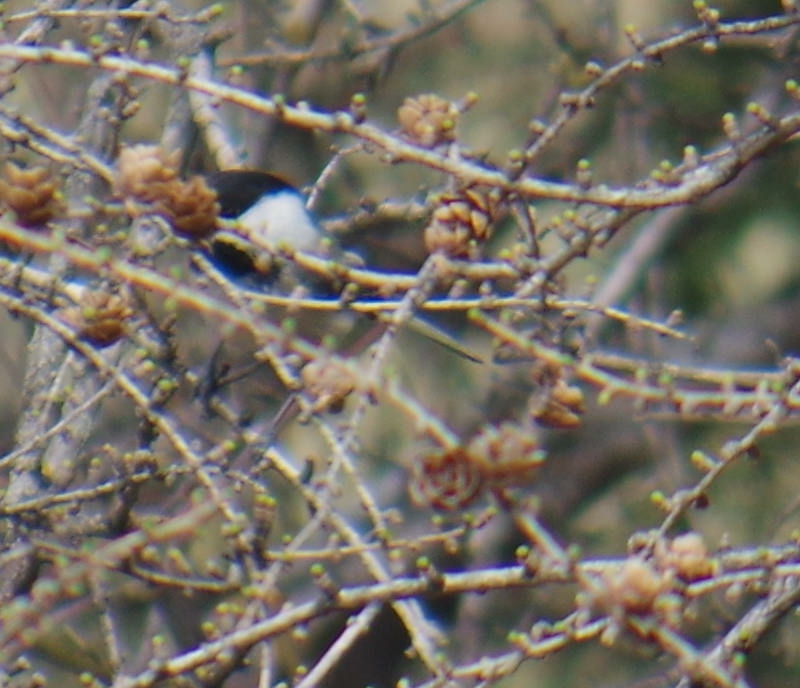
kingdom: Animalia
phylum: Chordata
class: Aves
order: Passeriformes
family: Paridae
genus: Poecile
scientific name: Poecile atricapillus
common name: Black-capped chickadee
